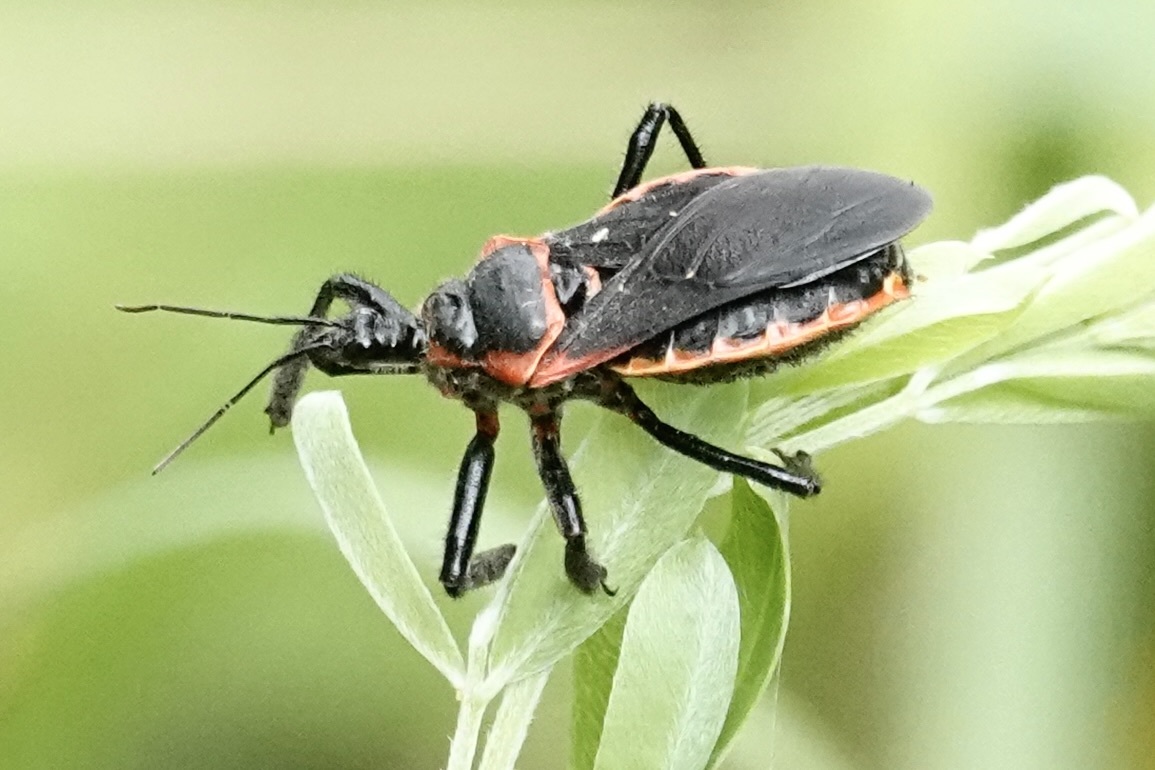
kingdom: Animalia
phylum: Arthropoda
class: Insecta
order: Hemiptera
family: Reduviidae
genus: Apiomerus
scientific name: Apiomerus crassipes
